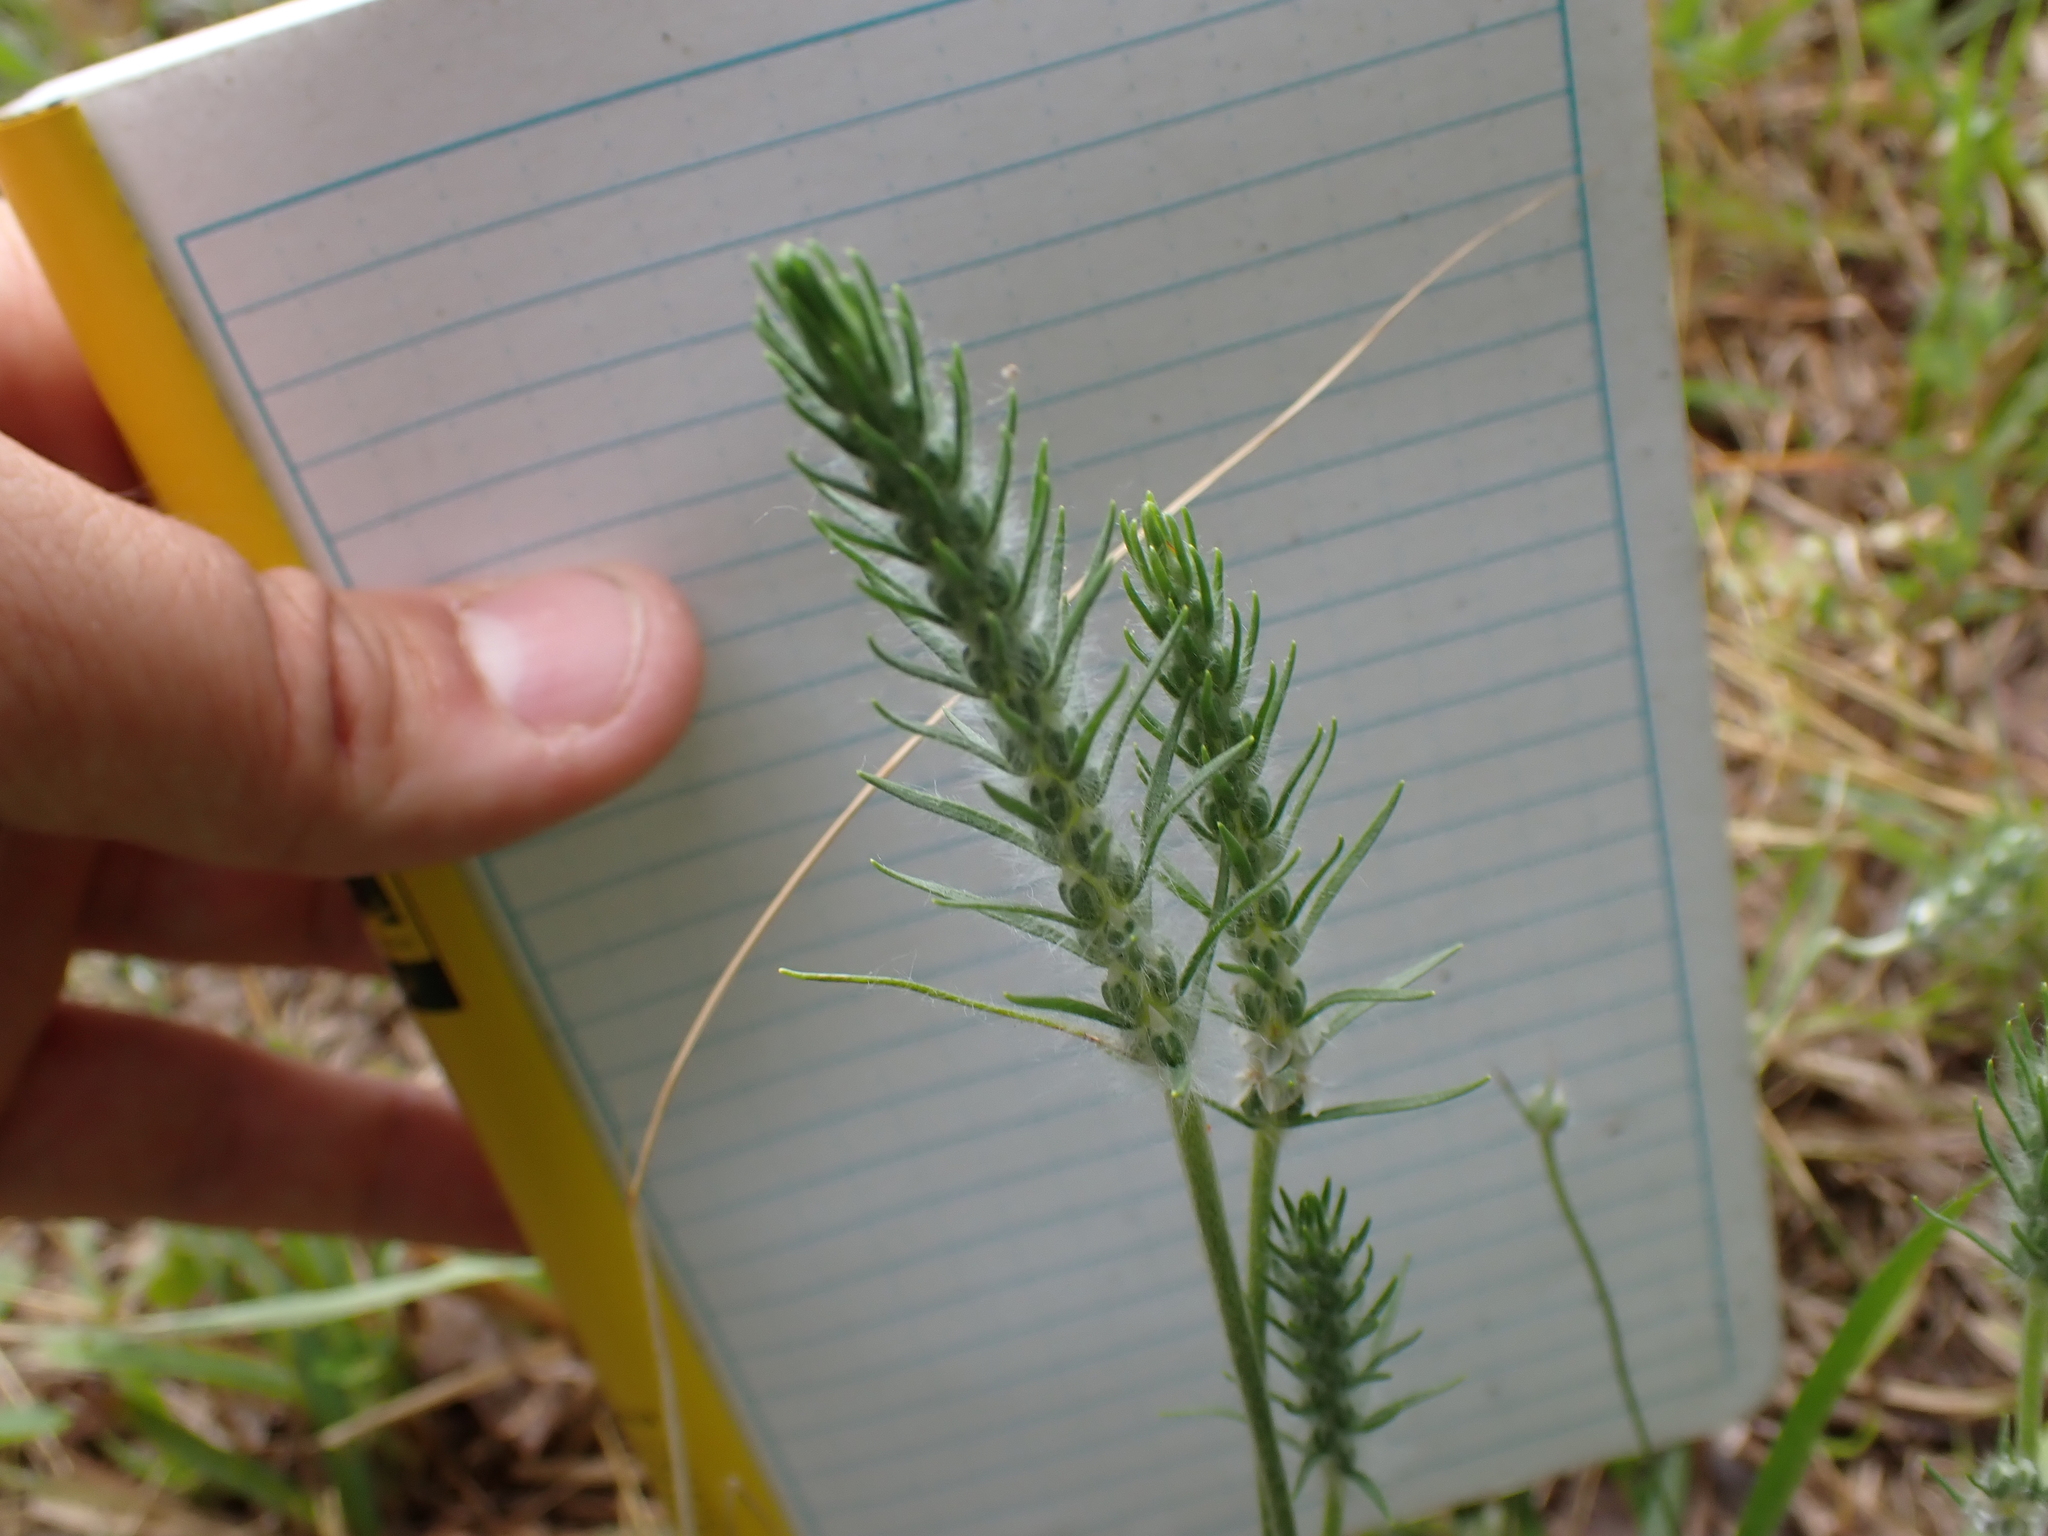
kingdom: Plantae
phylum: Tracheophyta
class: Magnoliopsida
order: Lamiales
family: Plantaginaceae
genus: Plantago
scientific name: Plantago aristata
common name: Bracted plantain
